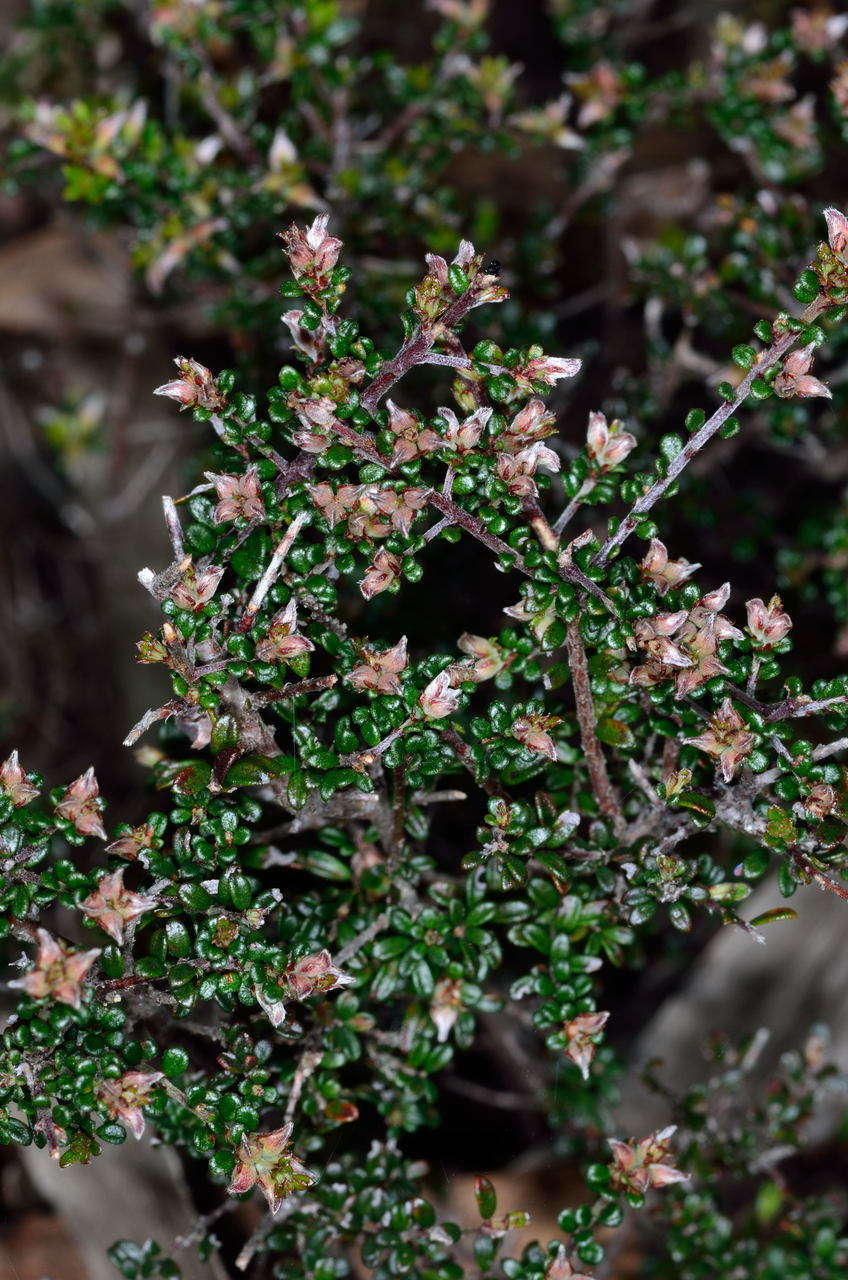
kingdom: Plantae
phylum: Tracheophyta
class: Magnoliopsida
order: Fabales
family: Fabaceae
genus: Pultenaea
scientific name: Pultenaea gunnii
